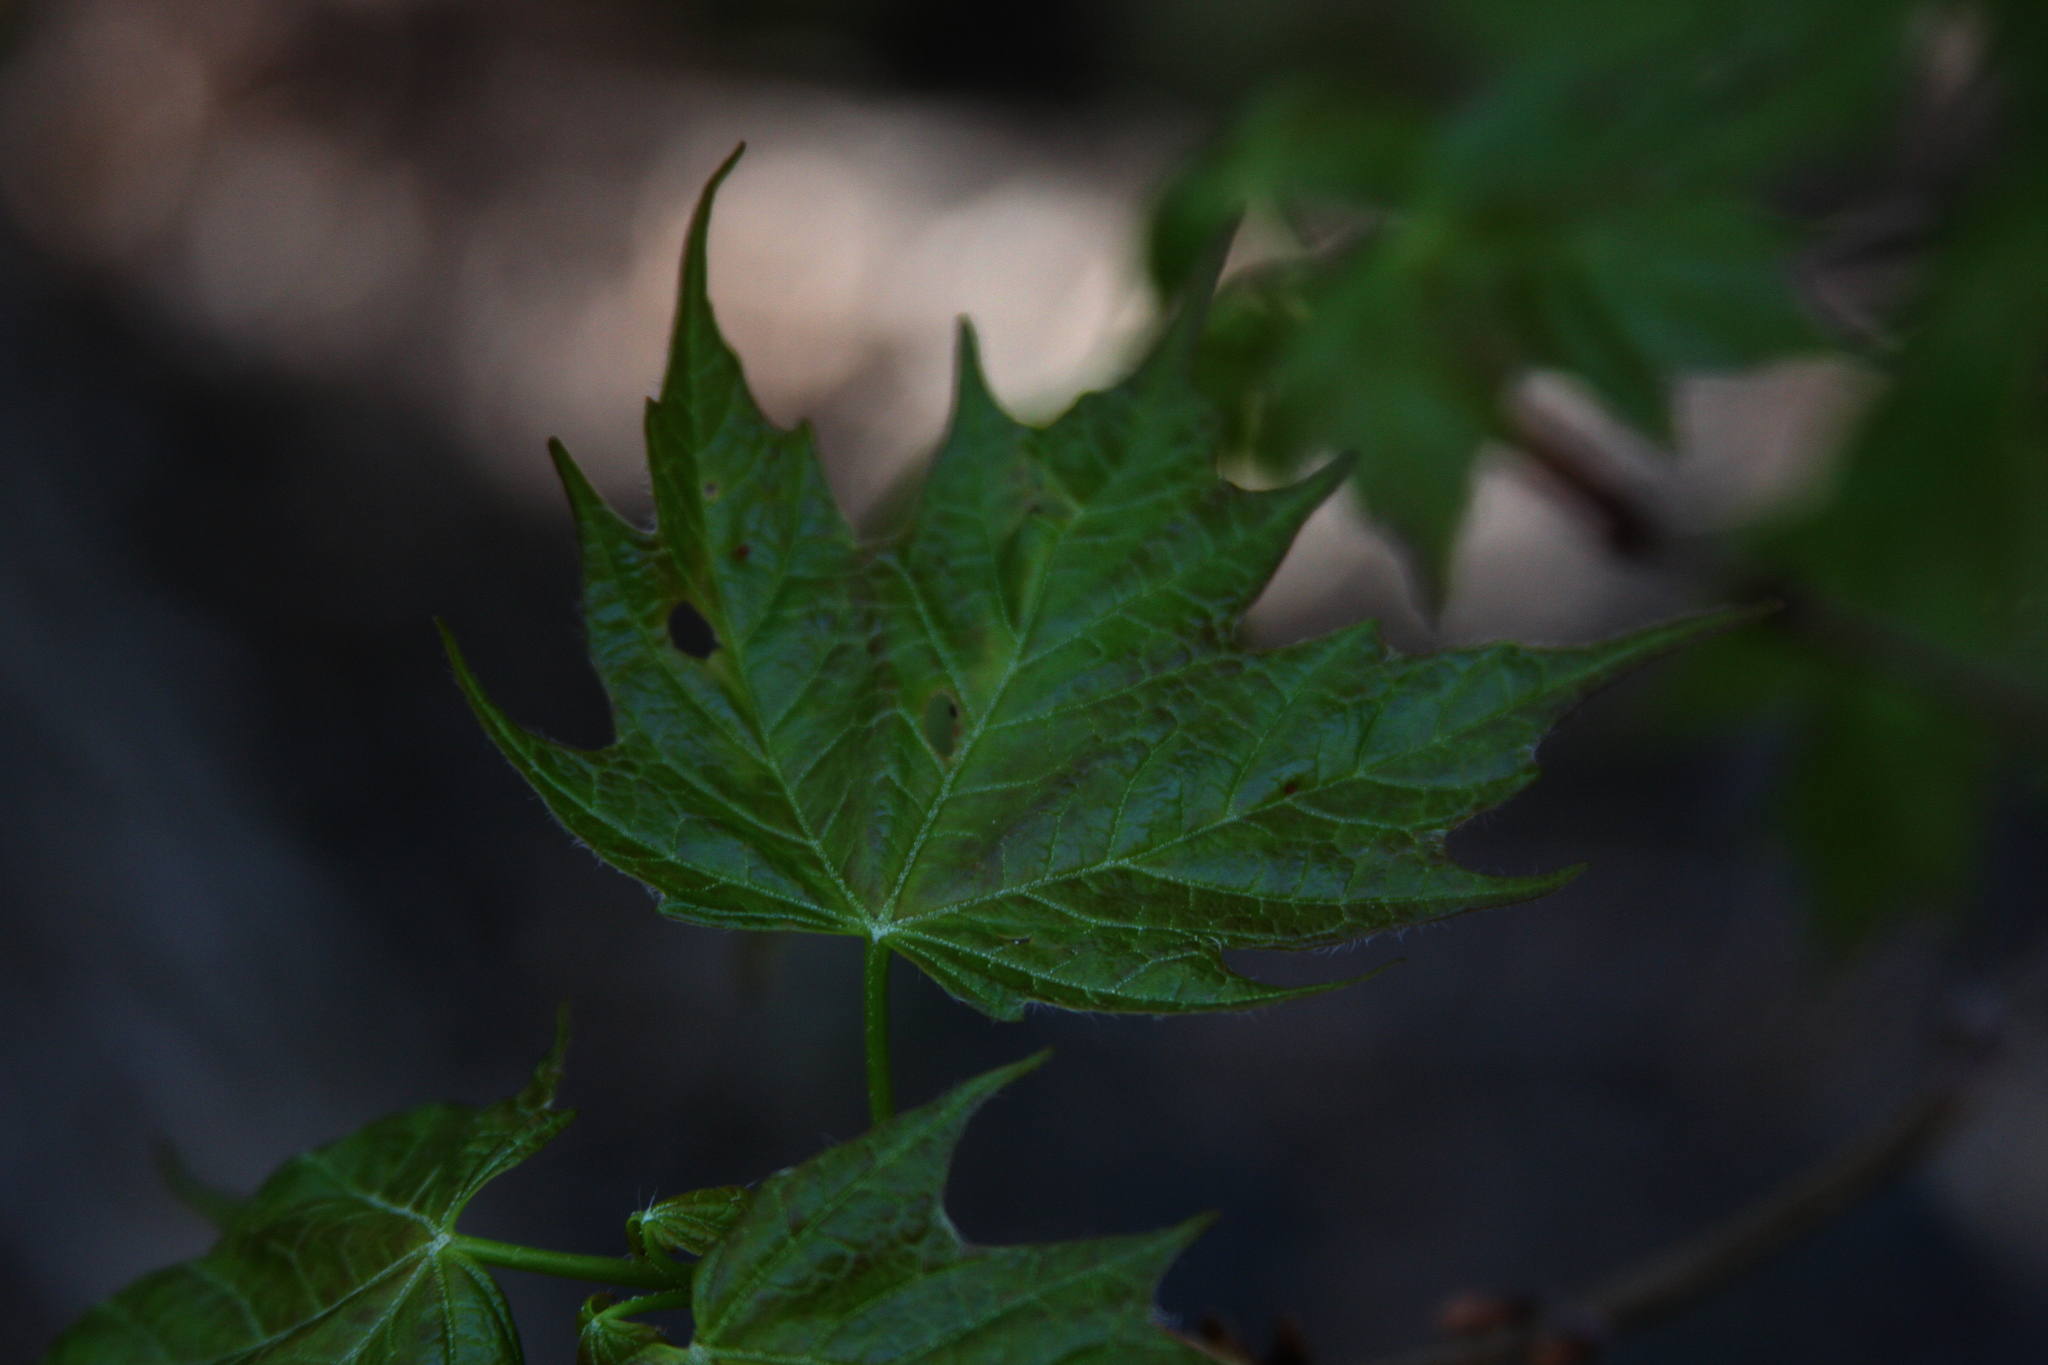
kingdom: Plantae
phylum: Tracheophyta
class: Magnoliopsida
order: Sapindales
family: Sapindaceae
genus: Acer
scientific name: Acer saccharum
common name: Sugar maple
